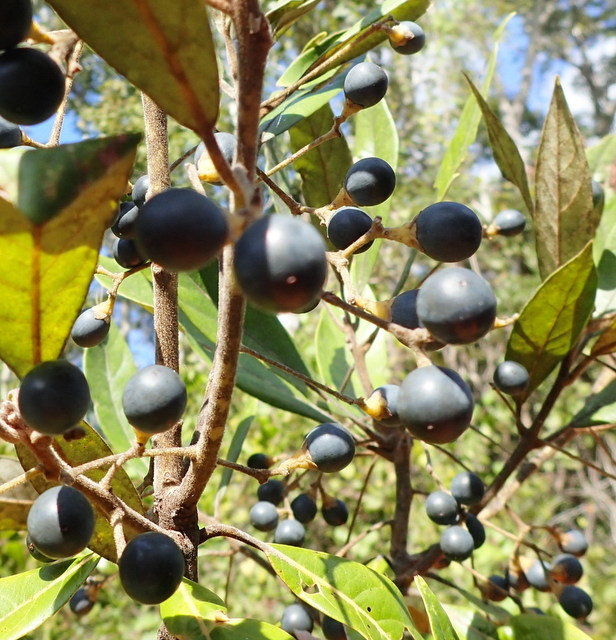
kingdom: Plantae
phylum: Tracheophyta
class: Magnoliopsida
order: Laurales
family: Lauraceae
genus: Persea
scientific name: Persea palustris
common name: Swampbay
